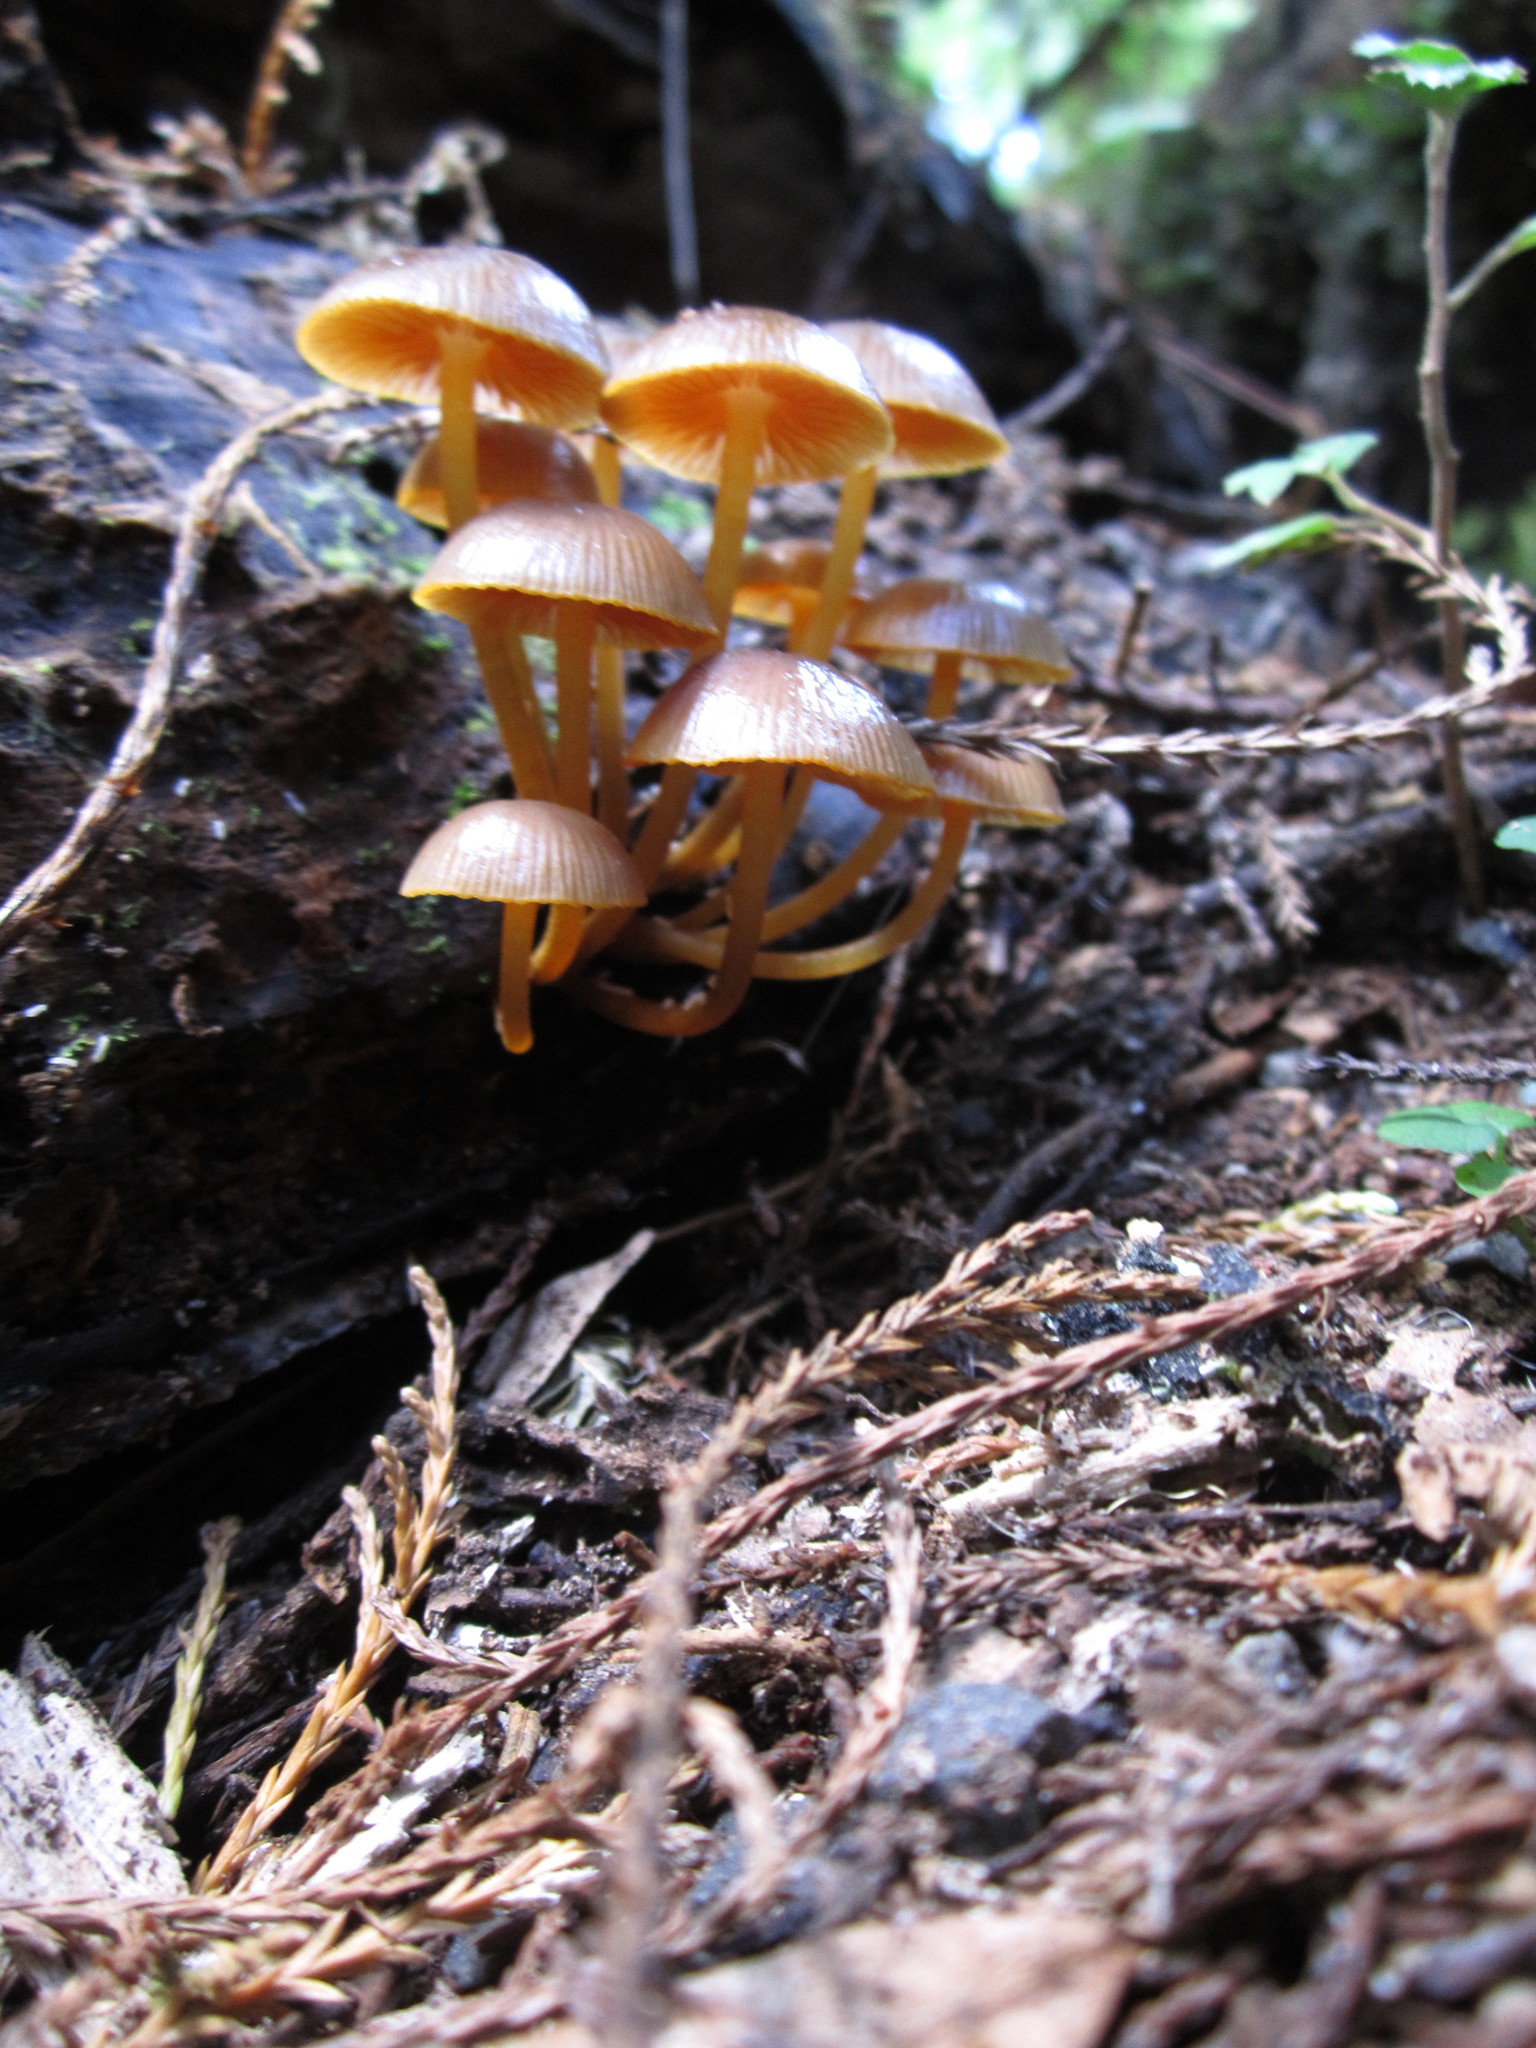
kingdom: Fungi
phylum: Basidiomycota
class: Agaricomycetes
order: Agaricales
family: Mycenaceae
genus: Mycena
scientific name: Mycena leaiana
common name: Orange mycena
